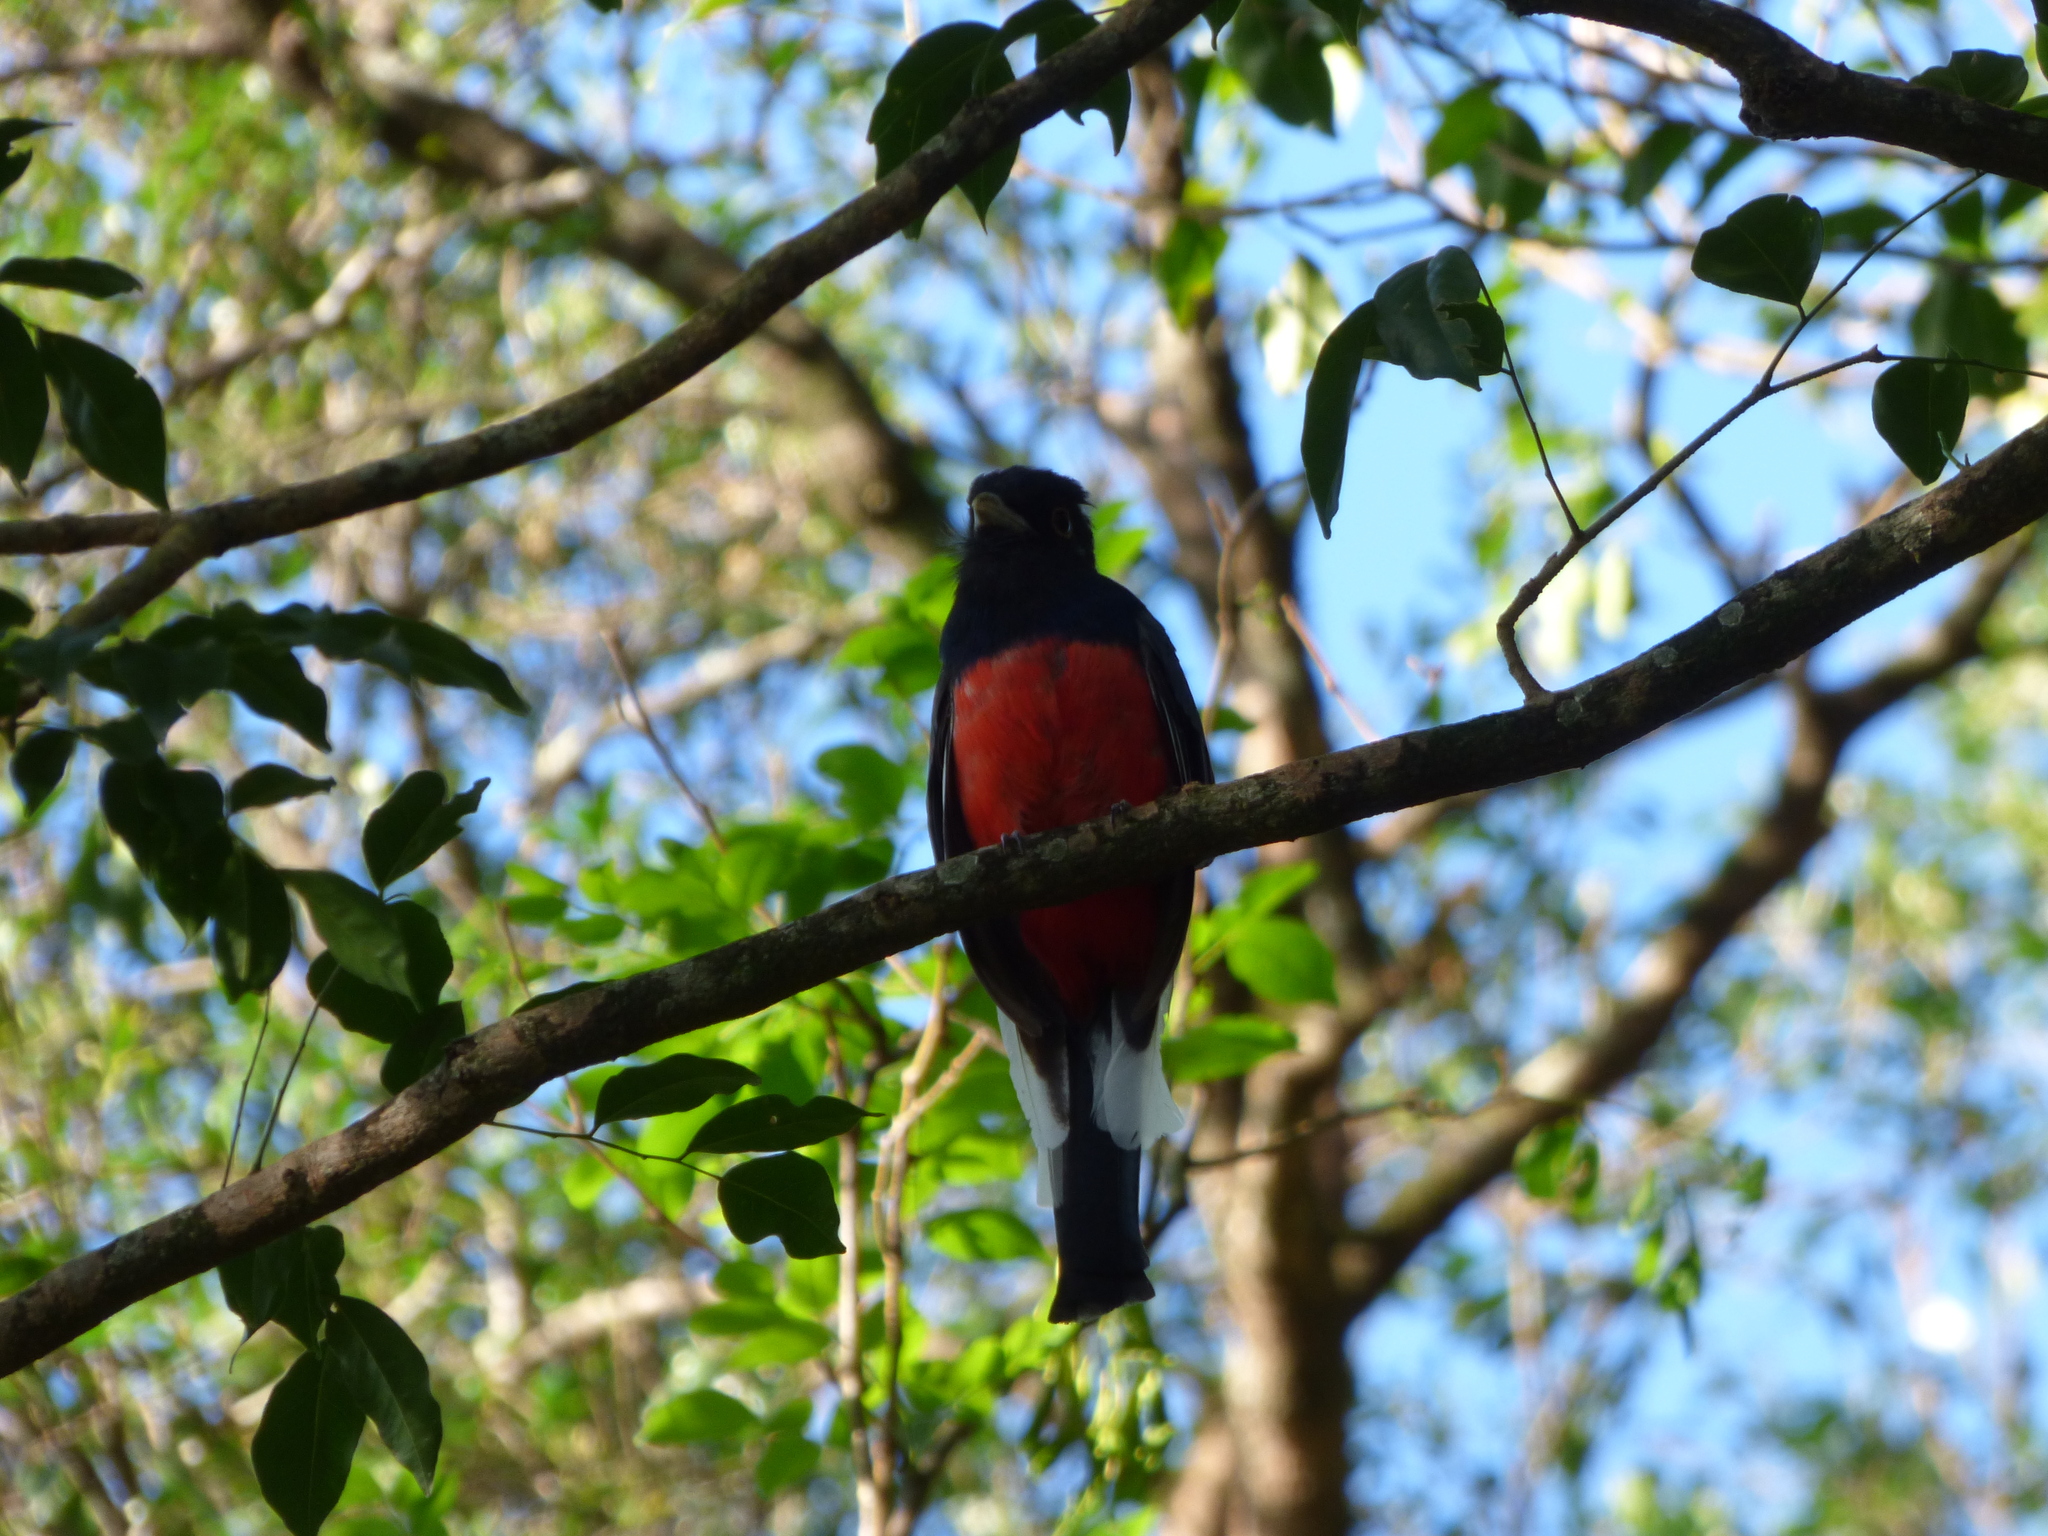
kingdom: Animalia
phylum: Chordata
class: Aves
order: Trogoniformes
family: Trogonidae
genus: Trogon
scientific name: Trogon surrucura
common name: Surucua trogon
